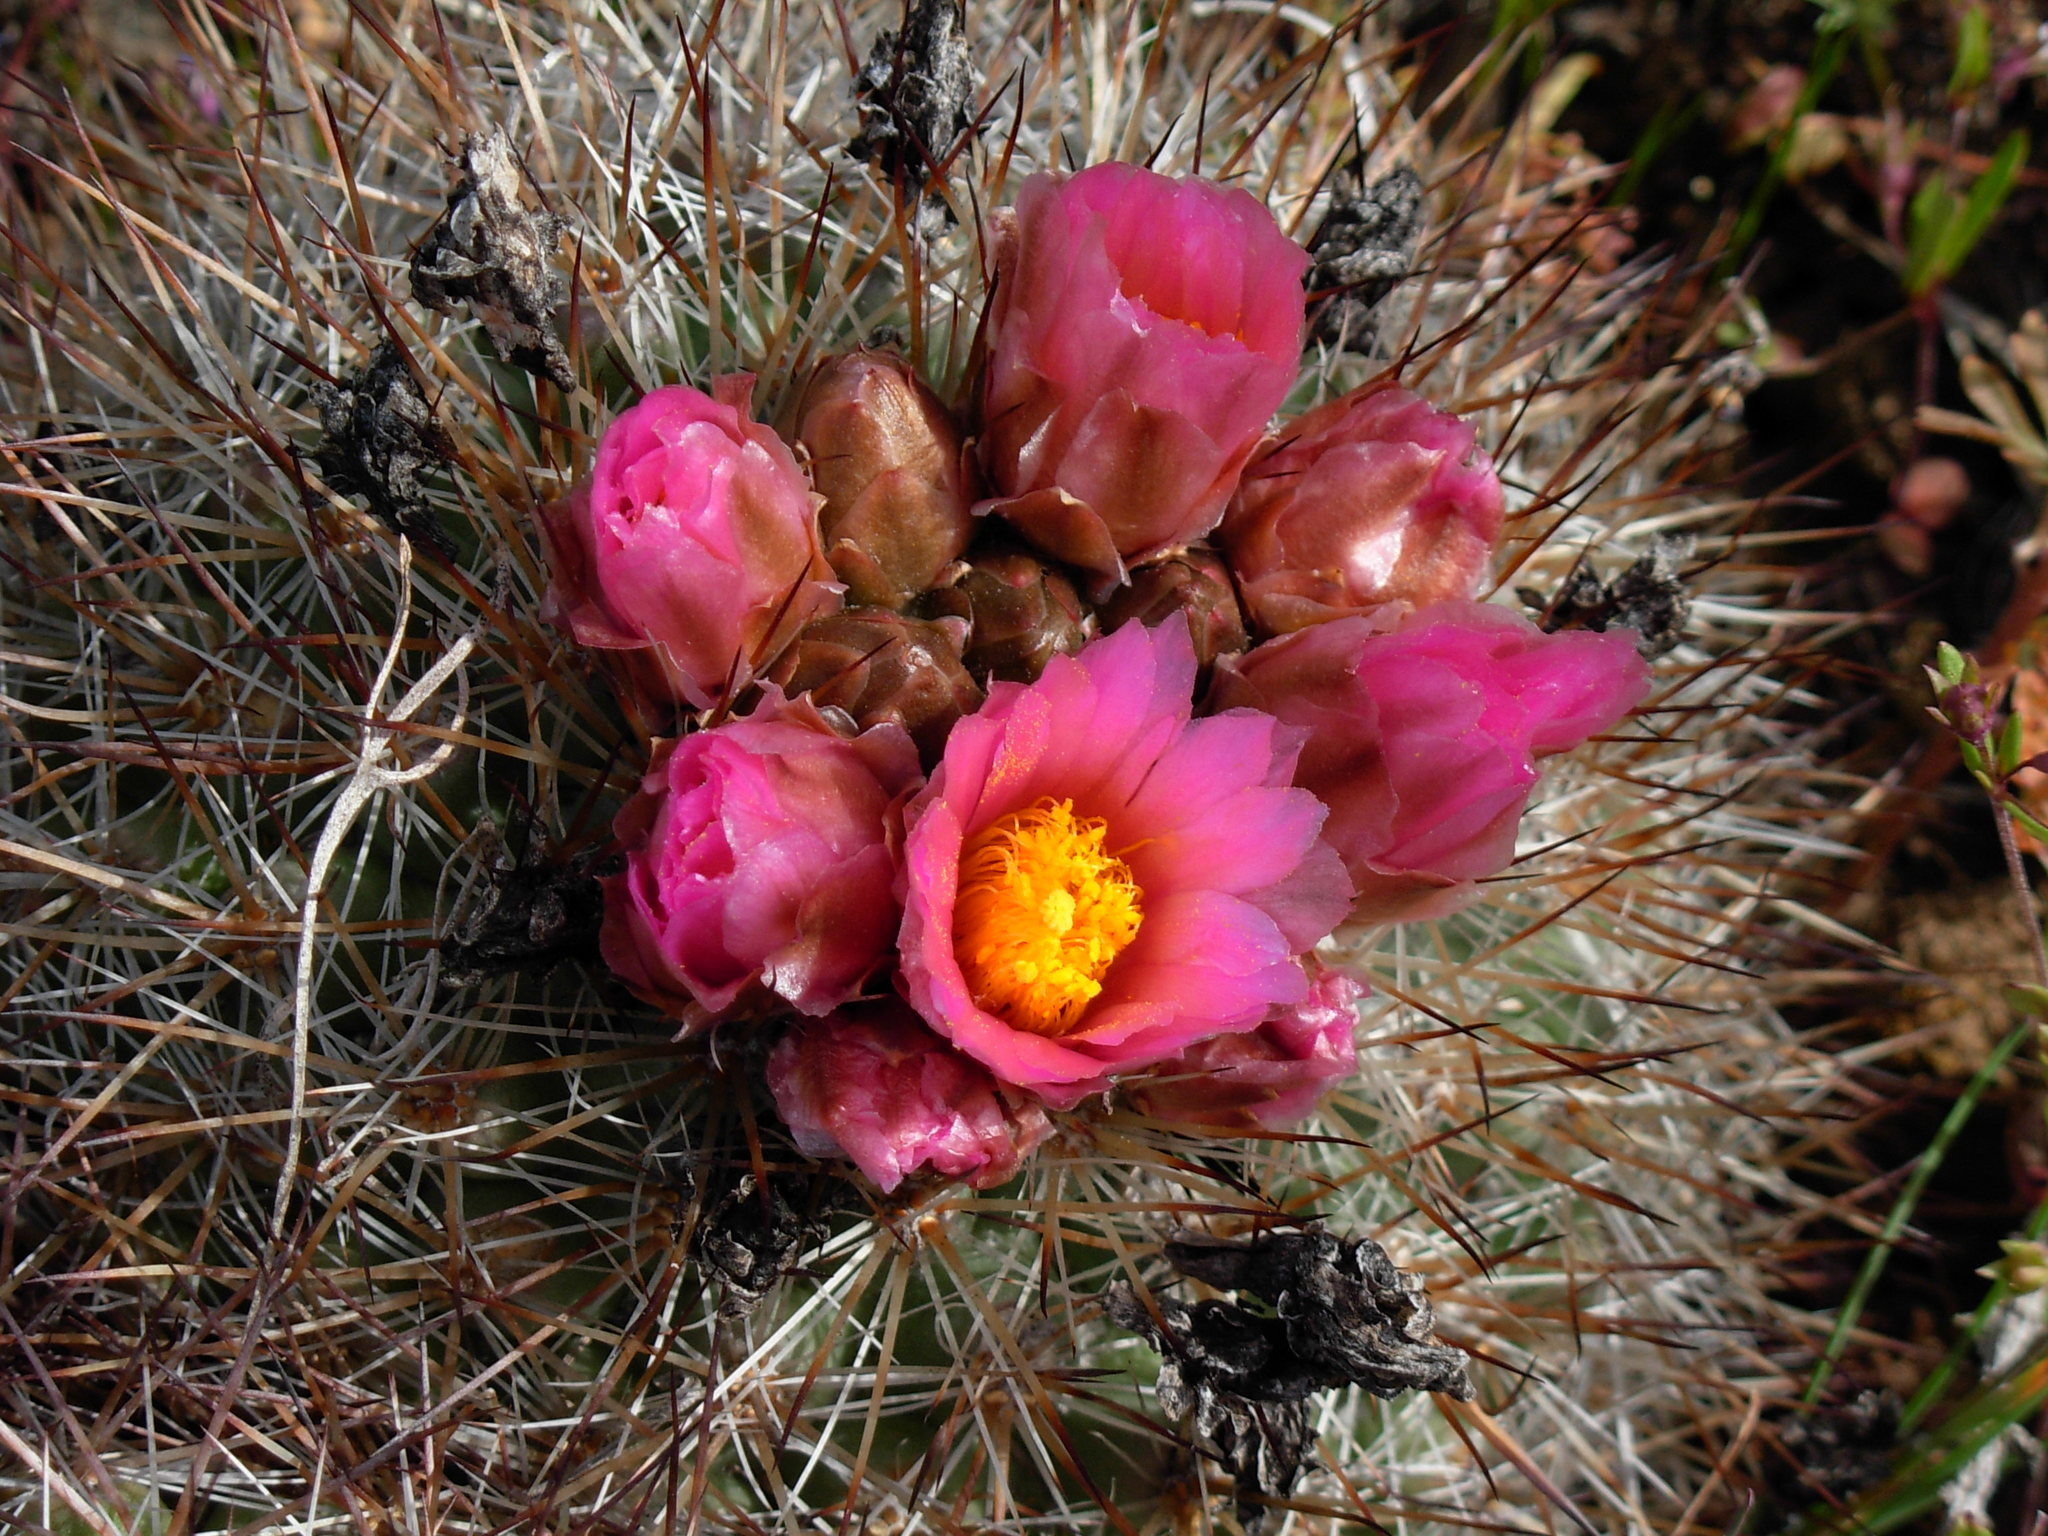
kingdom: Plantae
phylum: Tracheophyta
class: Magnoliopsida
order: Caryophyllales
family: Cactaceae
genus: Pediocactus
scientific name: Pediocactus nigrispinus
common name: Simpson's hedgehog cactus
